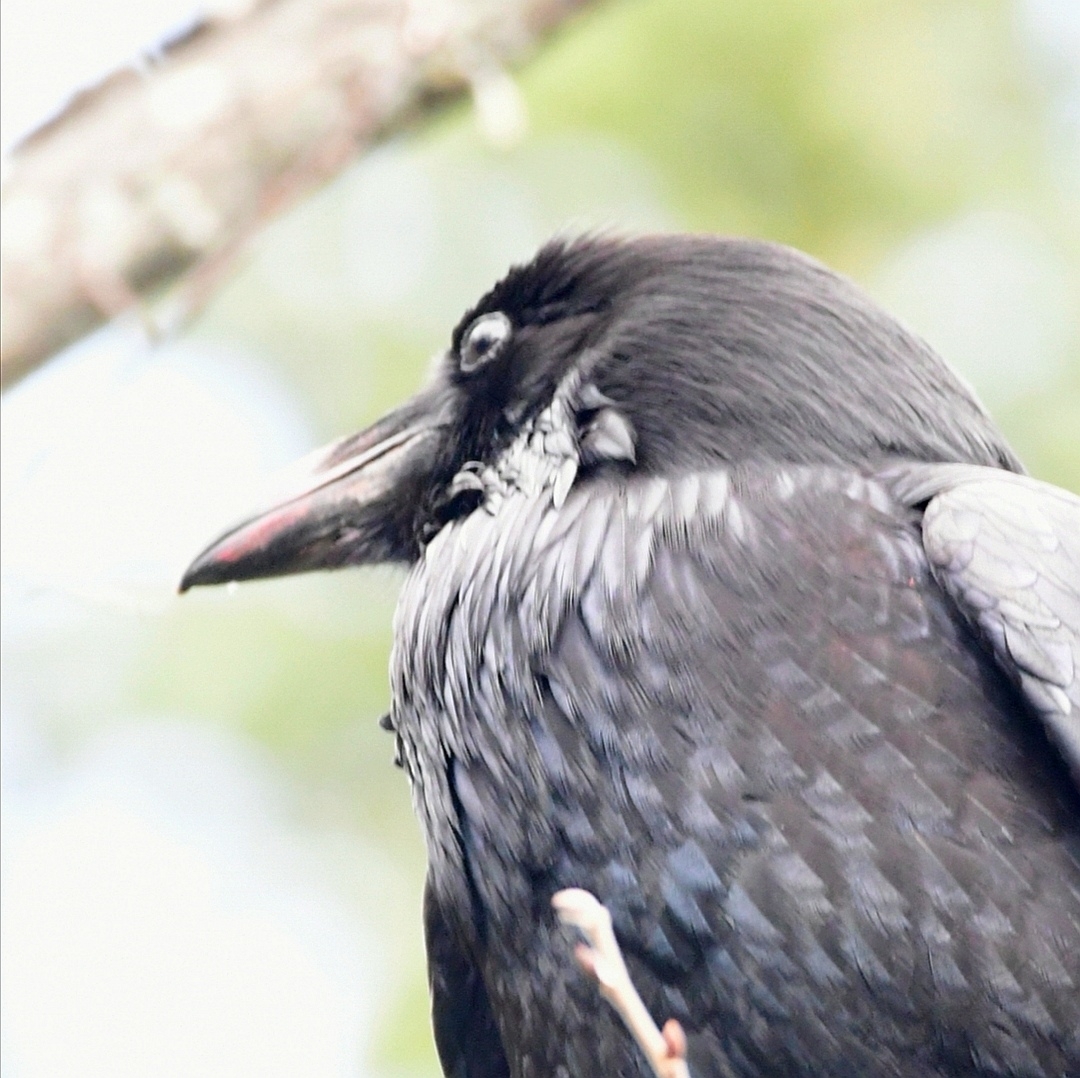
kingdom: Animalia
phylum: Chordata
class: Aves
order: Passeriformes
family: Corvidae
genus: Corvus
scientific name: Corvus corax
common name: Common raven
